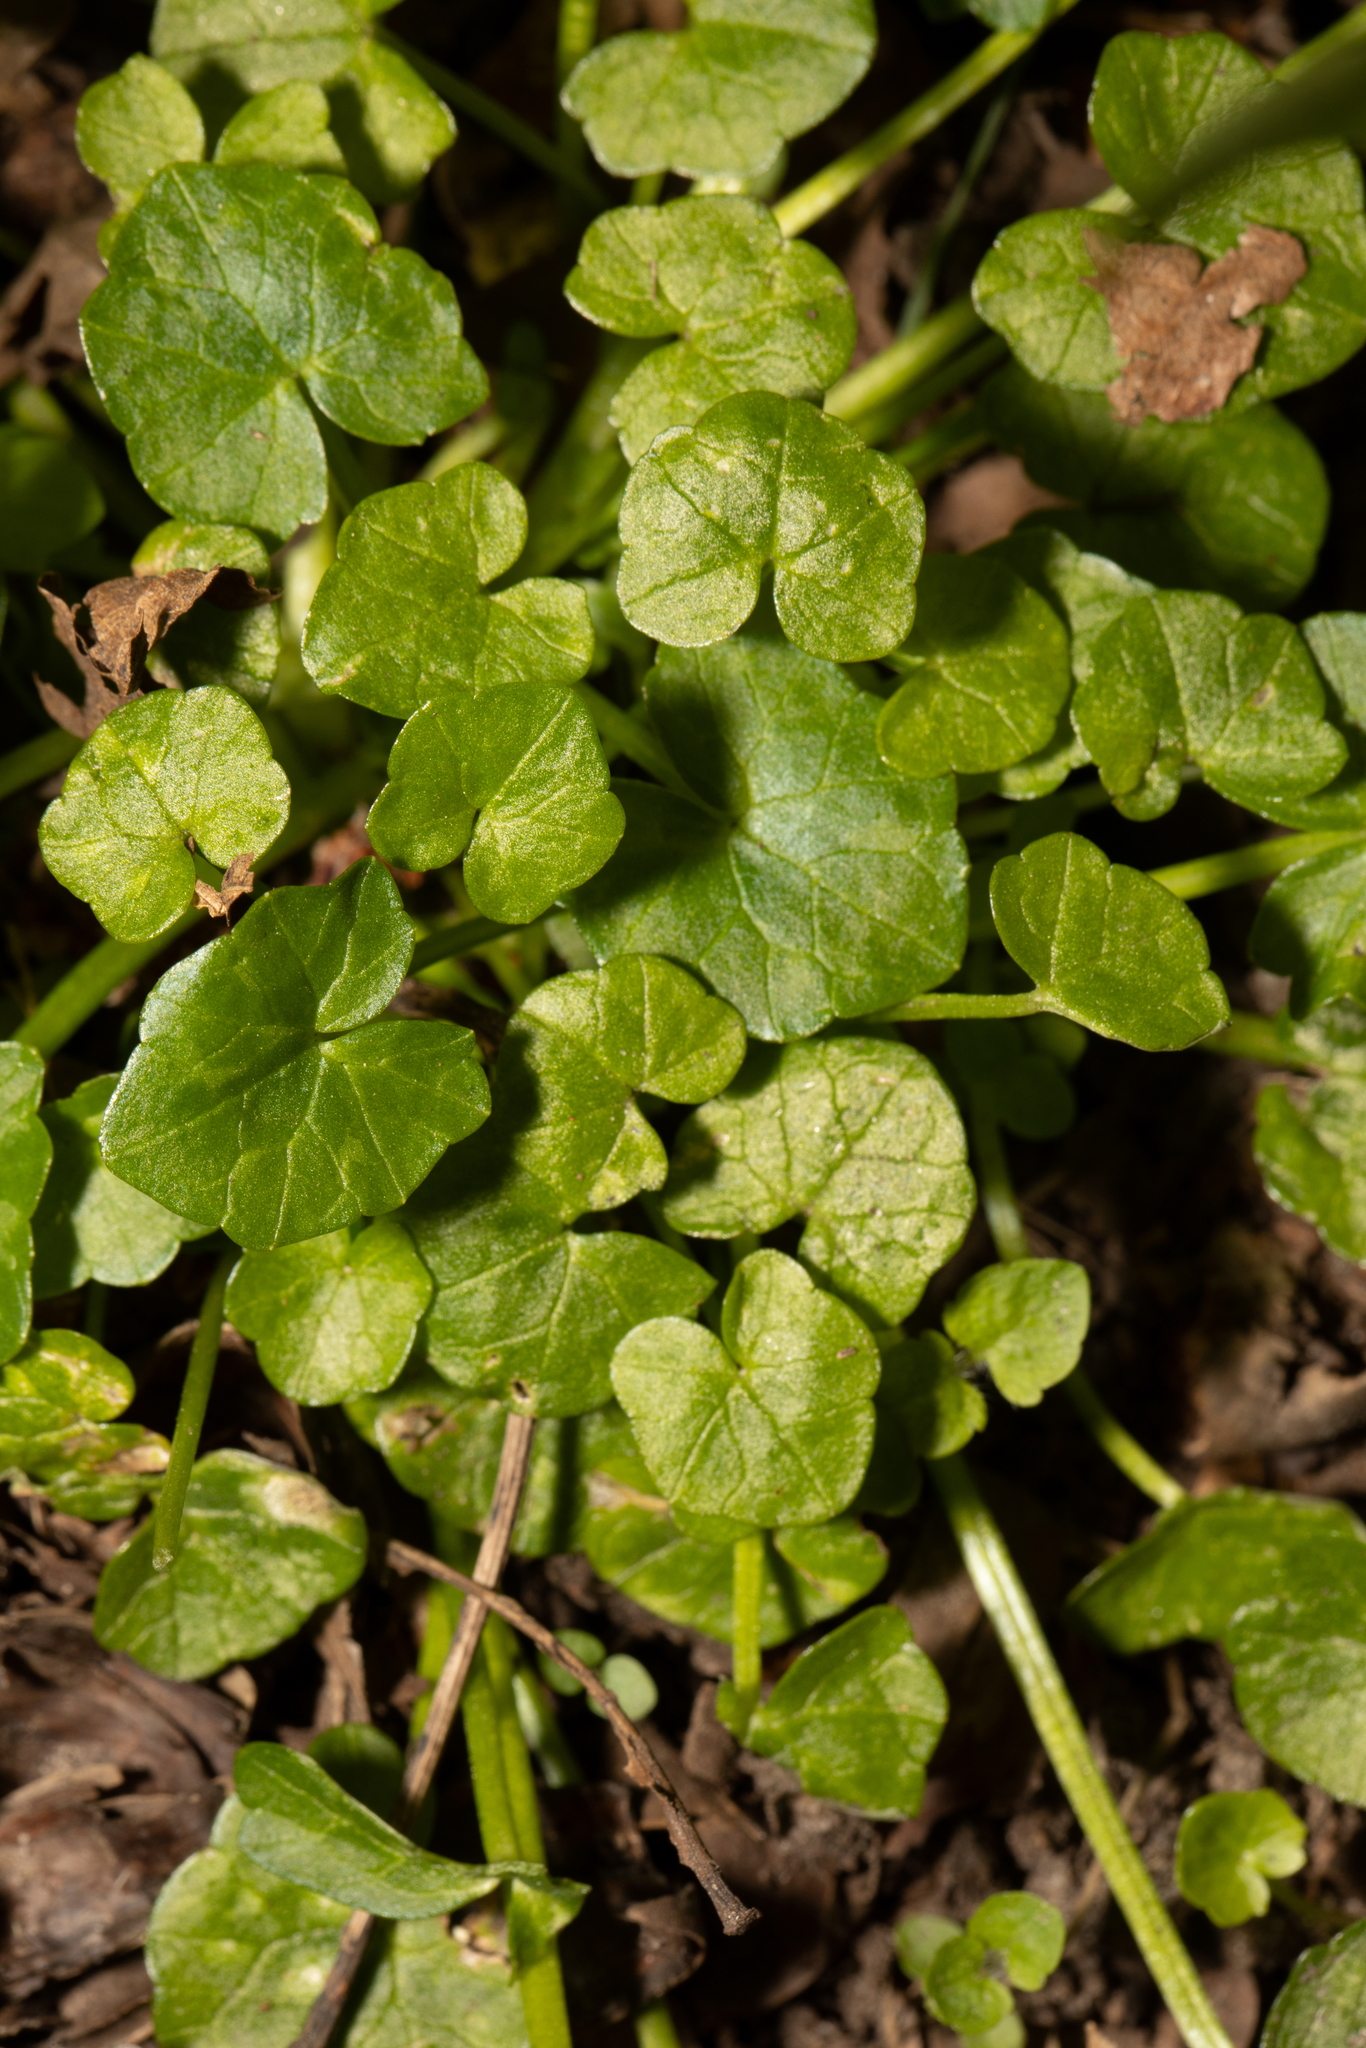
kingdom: Plantae
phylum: Tracheophyta
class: Magnoliopsida
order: Ranunculales
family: Ranunculaceae
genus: Ficaria
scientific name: Ficaria verna
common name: Lesser celandine
